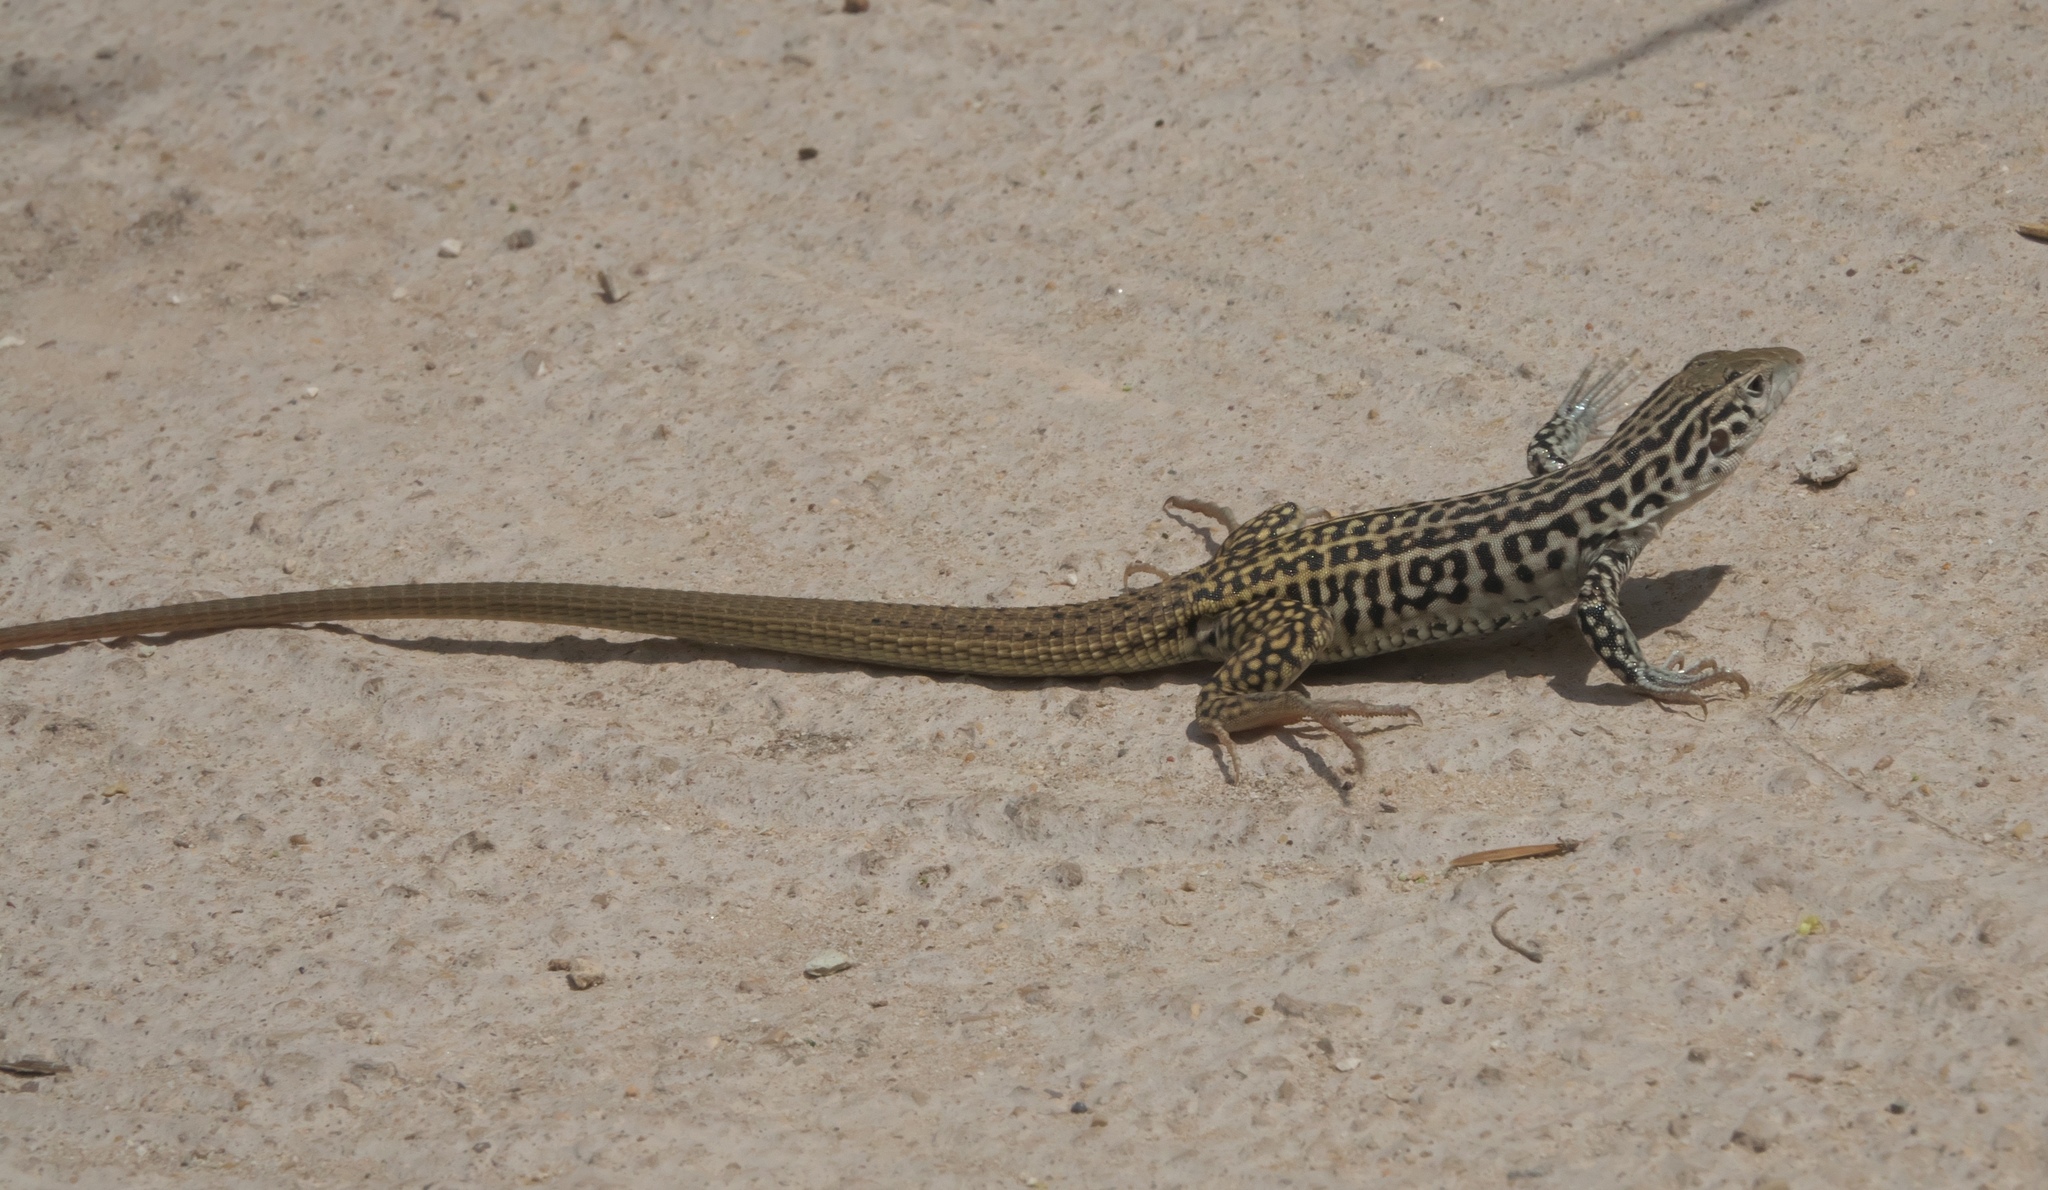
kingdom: Animalia
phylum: Chordata
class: Squamata
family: Teiidae
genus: Aspidoscelis
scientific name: Aspidoscelis tesselatus
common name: Common checkered whiptail [tesselata]
